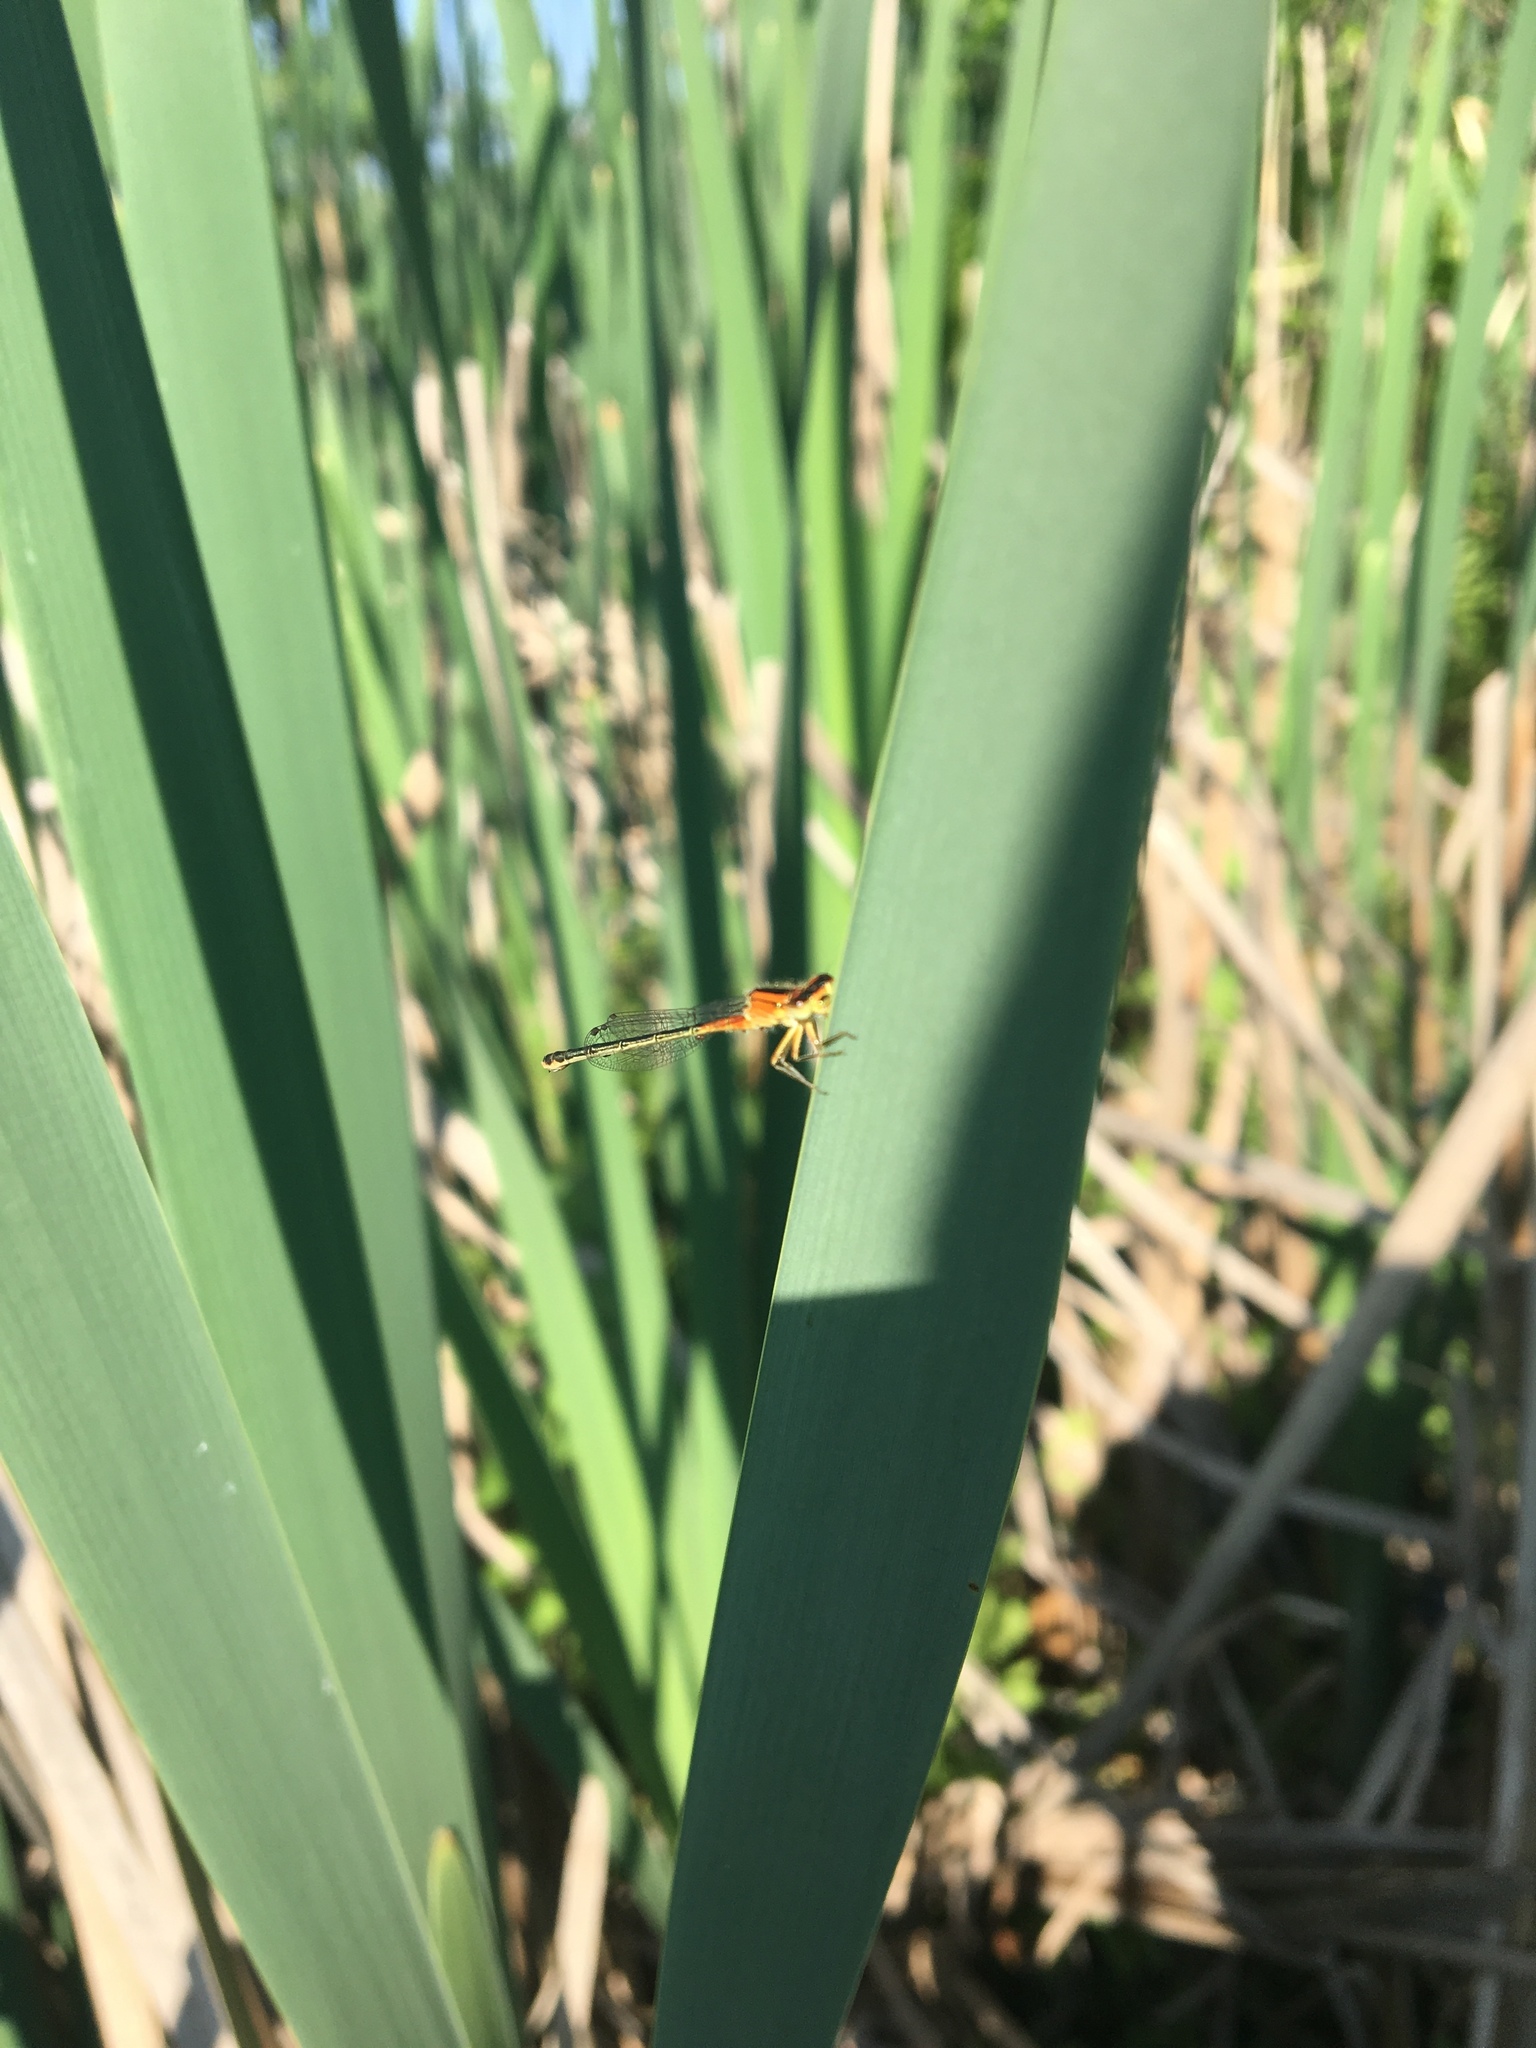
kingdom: Animalia
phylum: Arthropoda
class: Insecta
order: Odonata
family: Coenagrionidae
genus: Ischnura
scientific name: Ischnura verticalis
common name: Eastern forktail
